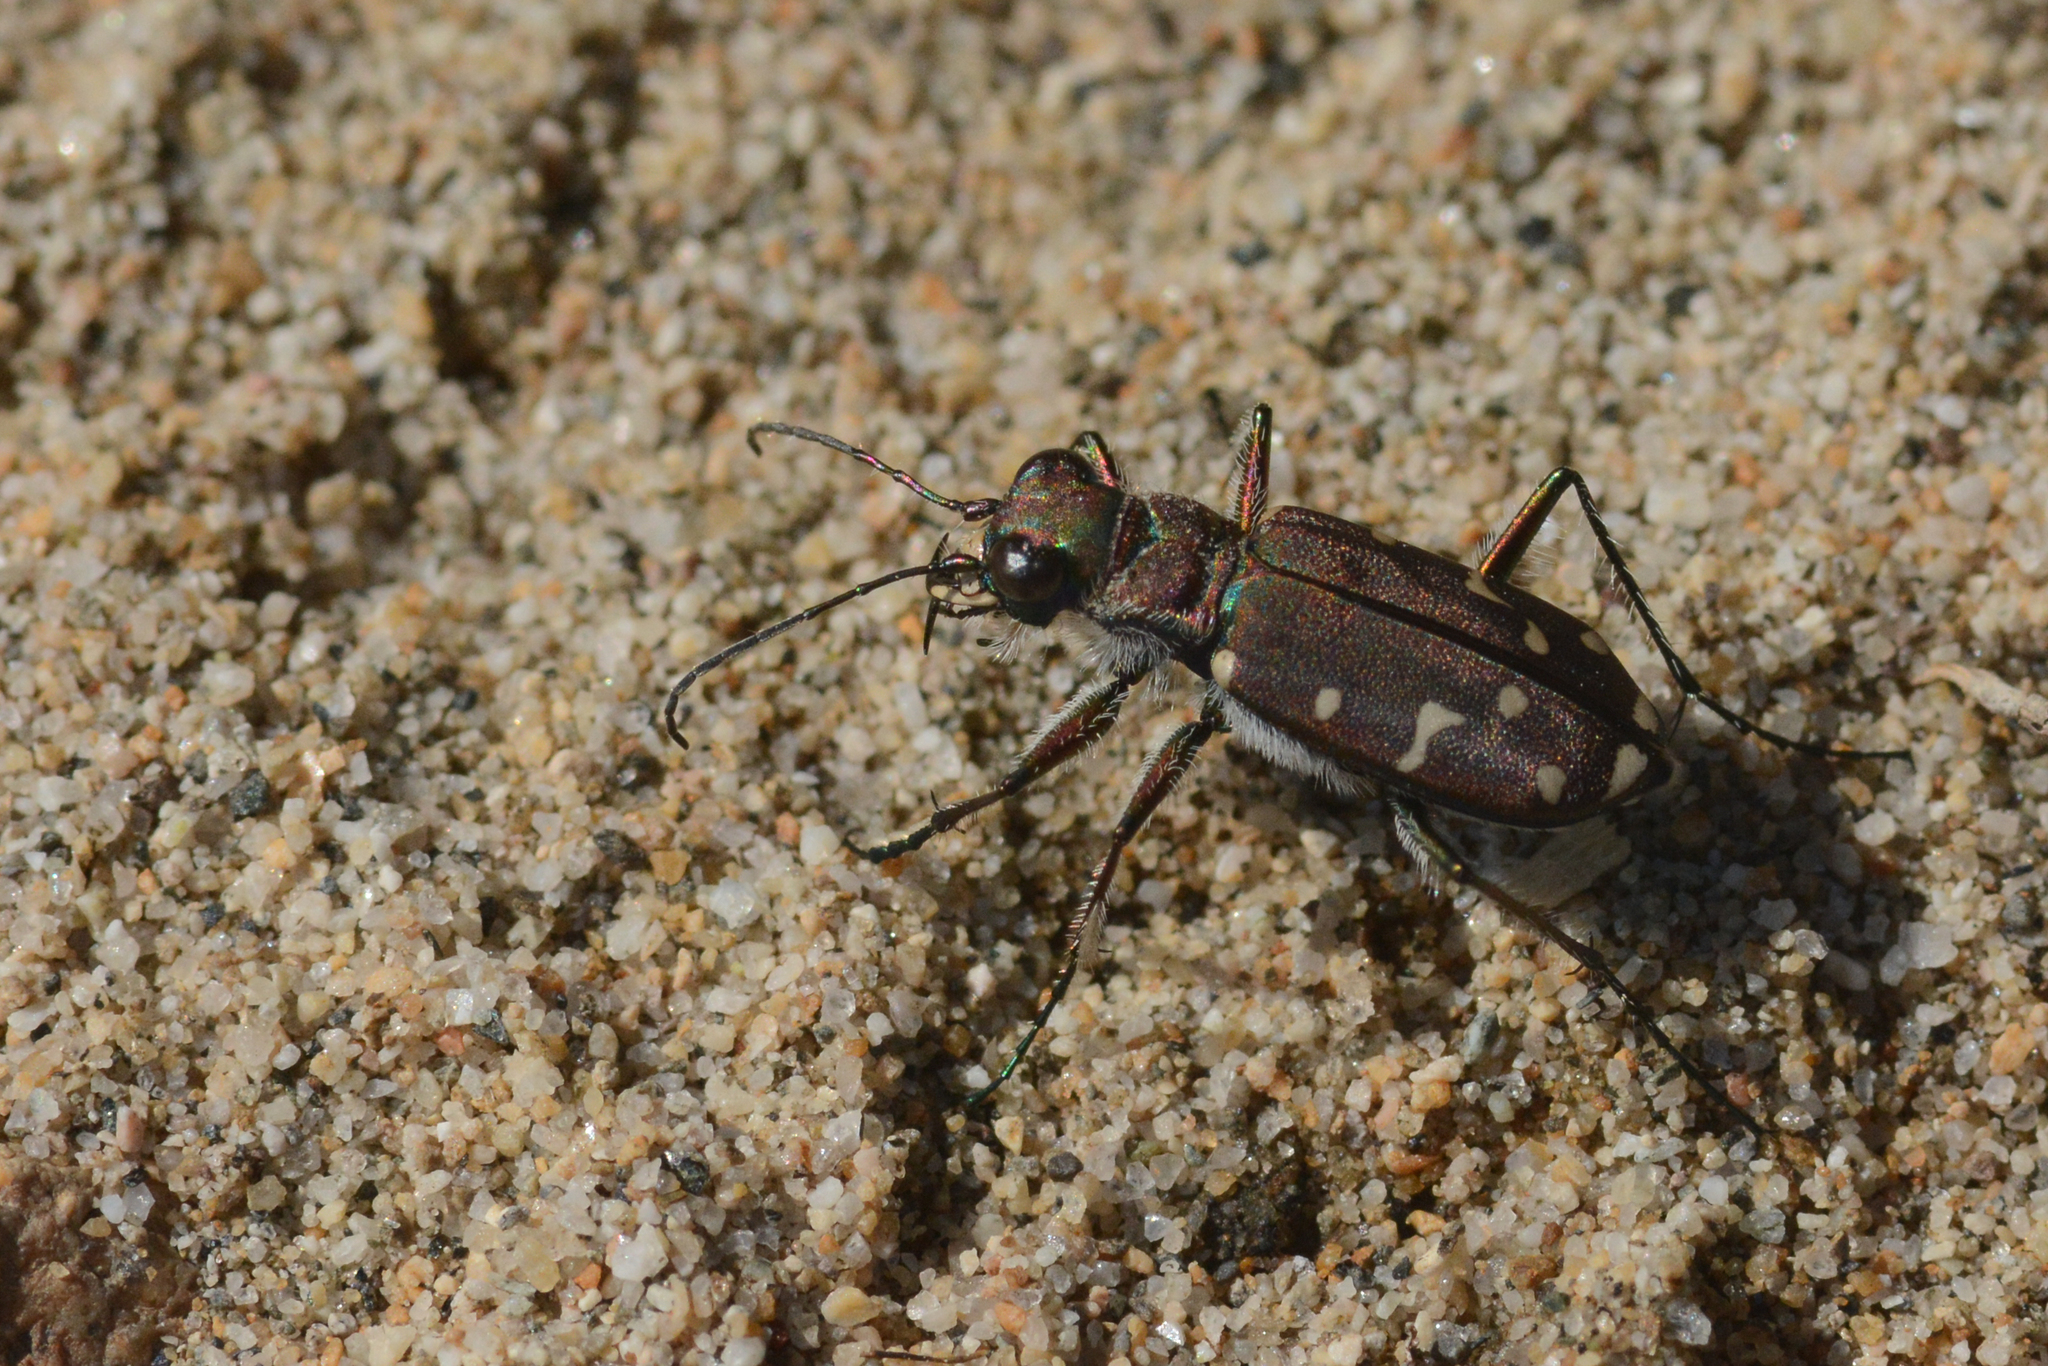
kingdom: Animalia
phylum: Arthropoda
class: Insecta
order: Coleoptera
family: Carabidae
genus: Cicindela
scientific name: Cicindela oregona
